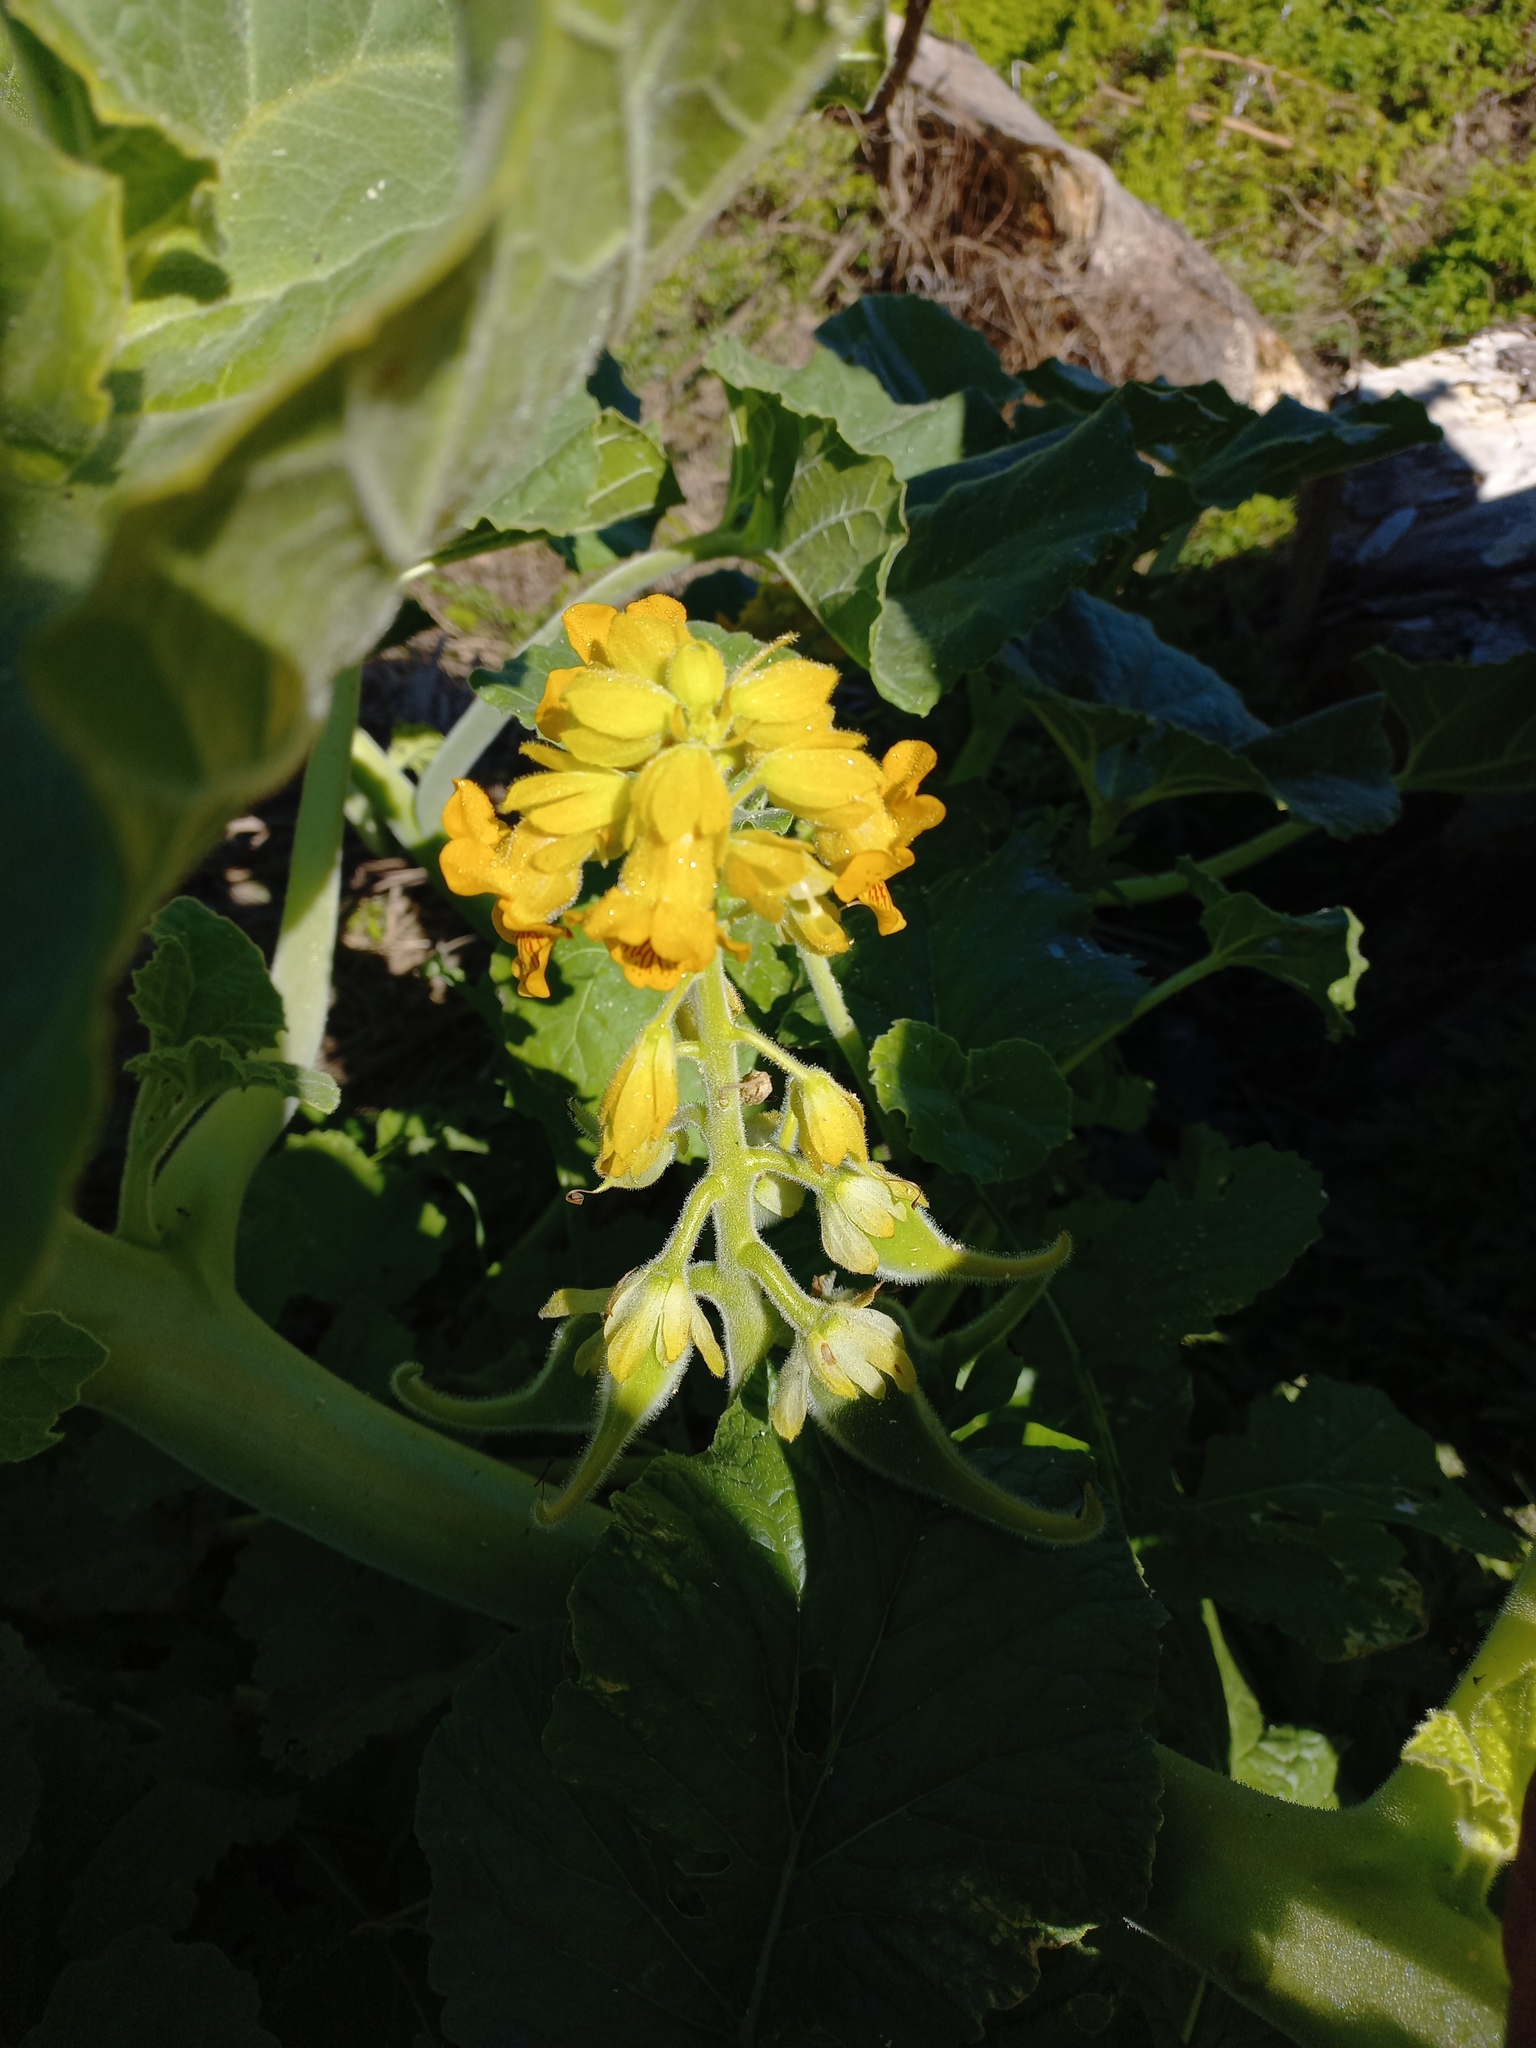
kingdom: Plantae
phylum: Tracheophyta
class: Magnoliopsida
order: Lamiales
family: Martyniaceae
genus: Ibicella
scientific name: Ibicella lutea
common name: Yellow unicorn-plant
